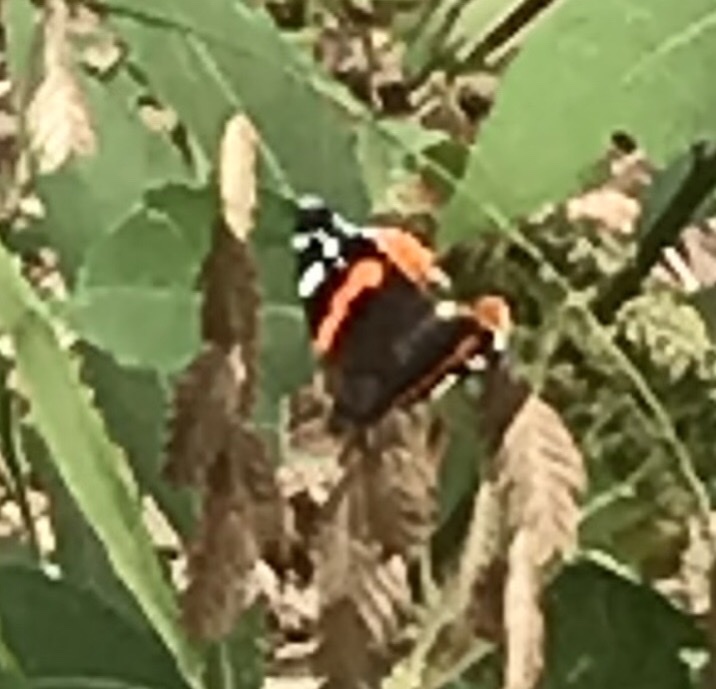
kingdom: Animalia
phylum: Arthropoda
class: Insecta
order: Lepidoptera
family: Nymphalidae
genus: Vanessa
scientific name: Vanessa atalanta
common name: Red admiral
